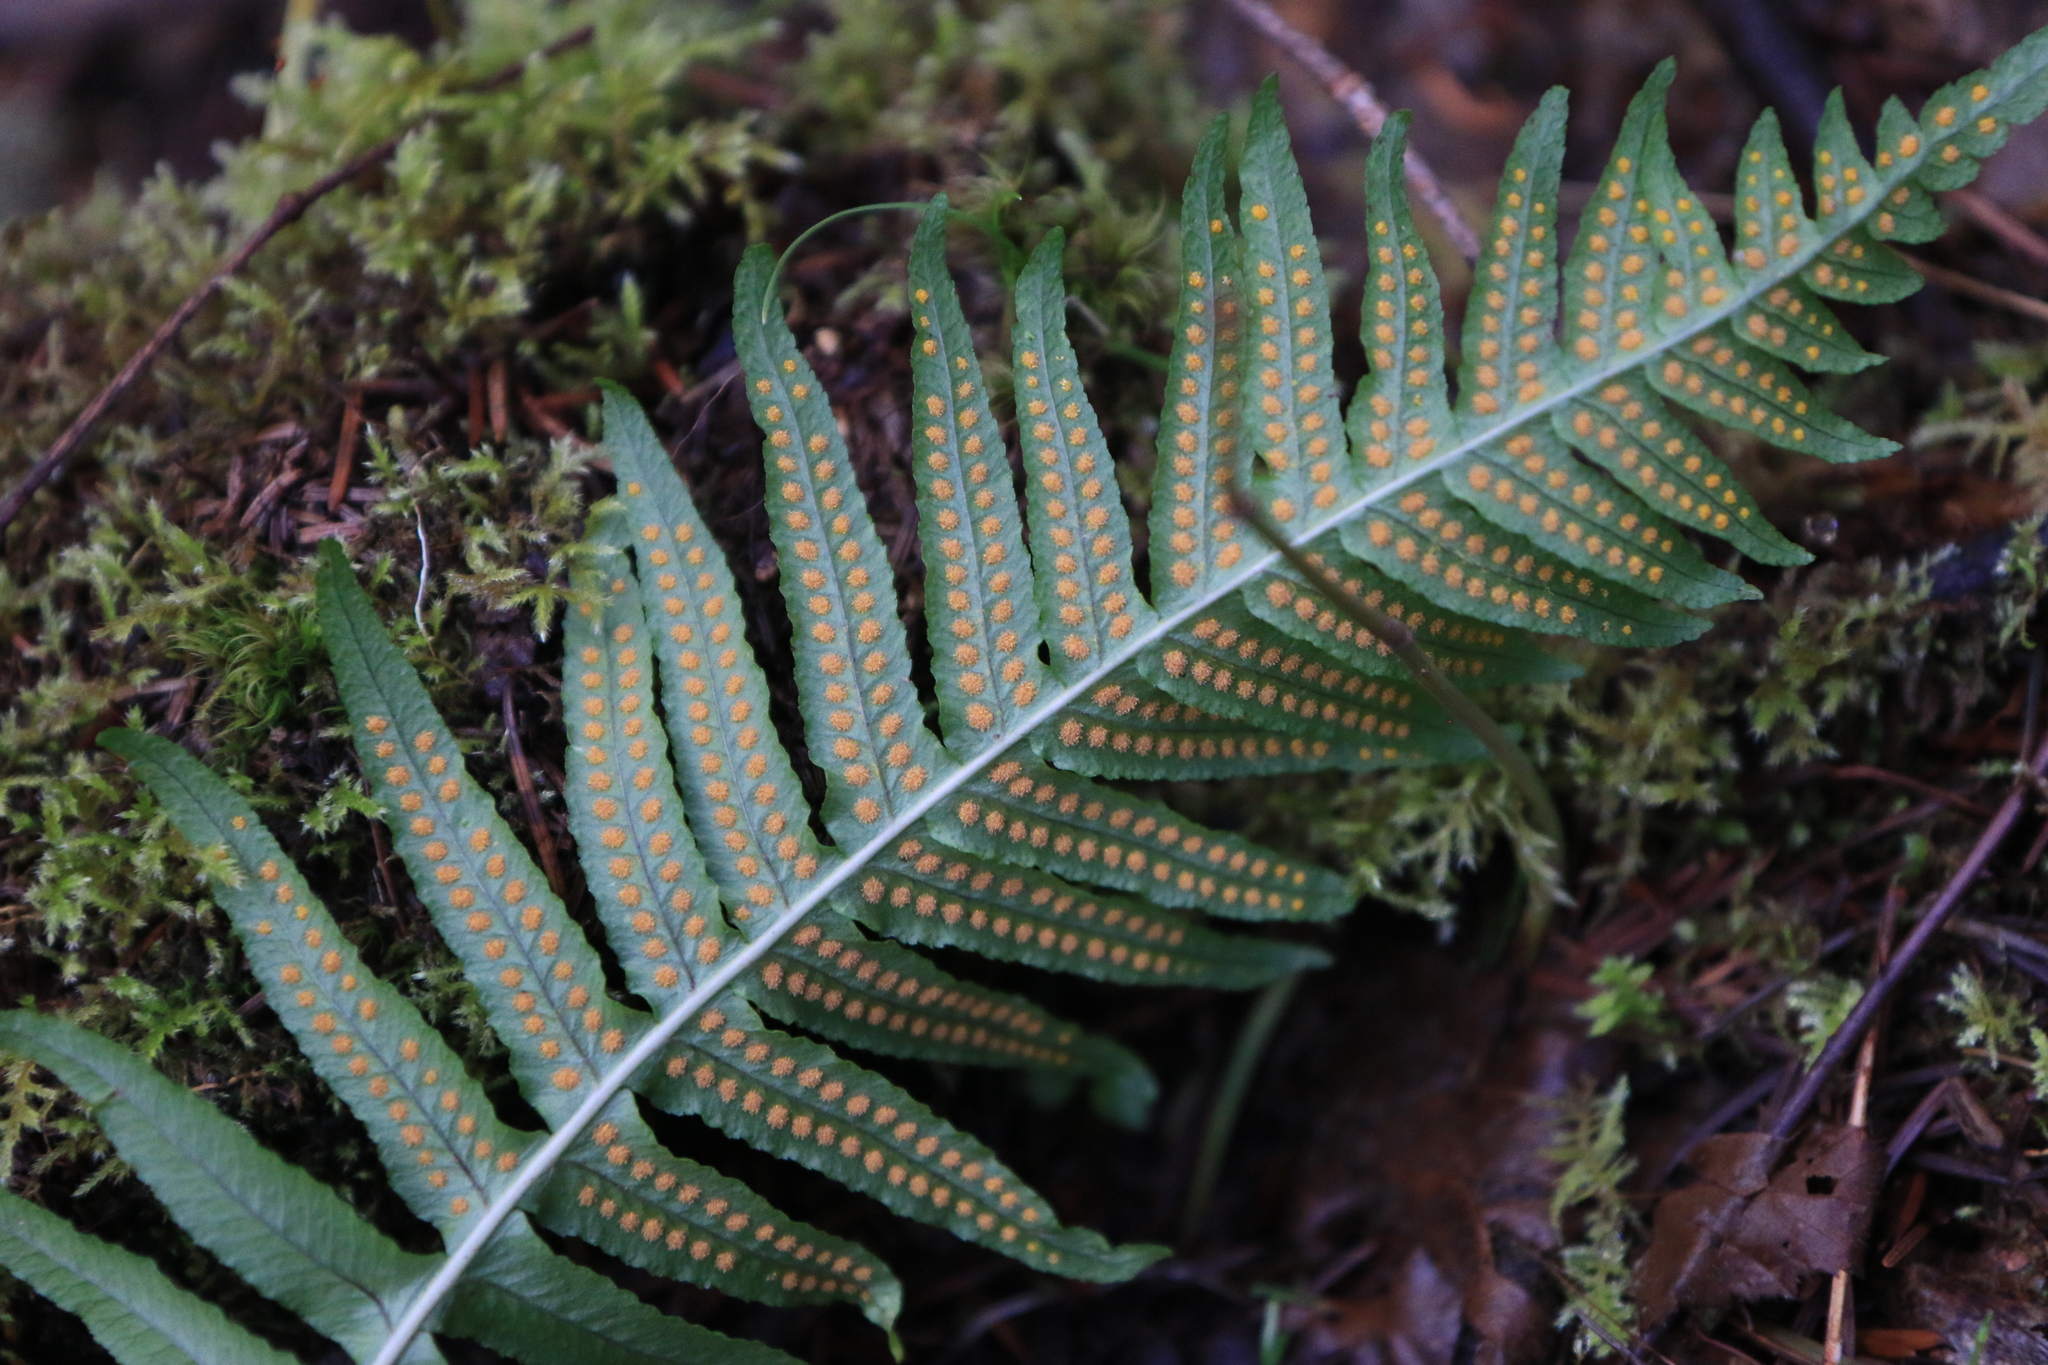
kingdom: Plantae
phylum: Tracheophyta
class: Polypodiopsida
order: Polypodiales
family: Polypodiaceae
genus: Polypodium
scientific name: Polypodium glycyrrhiza
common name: Licorice fern
